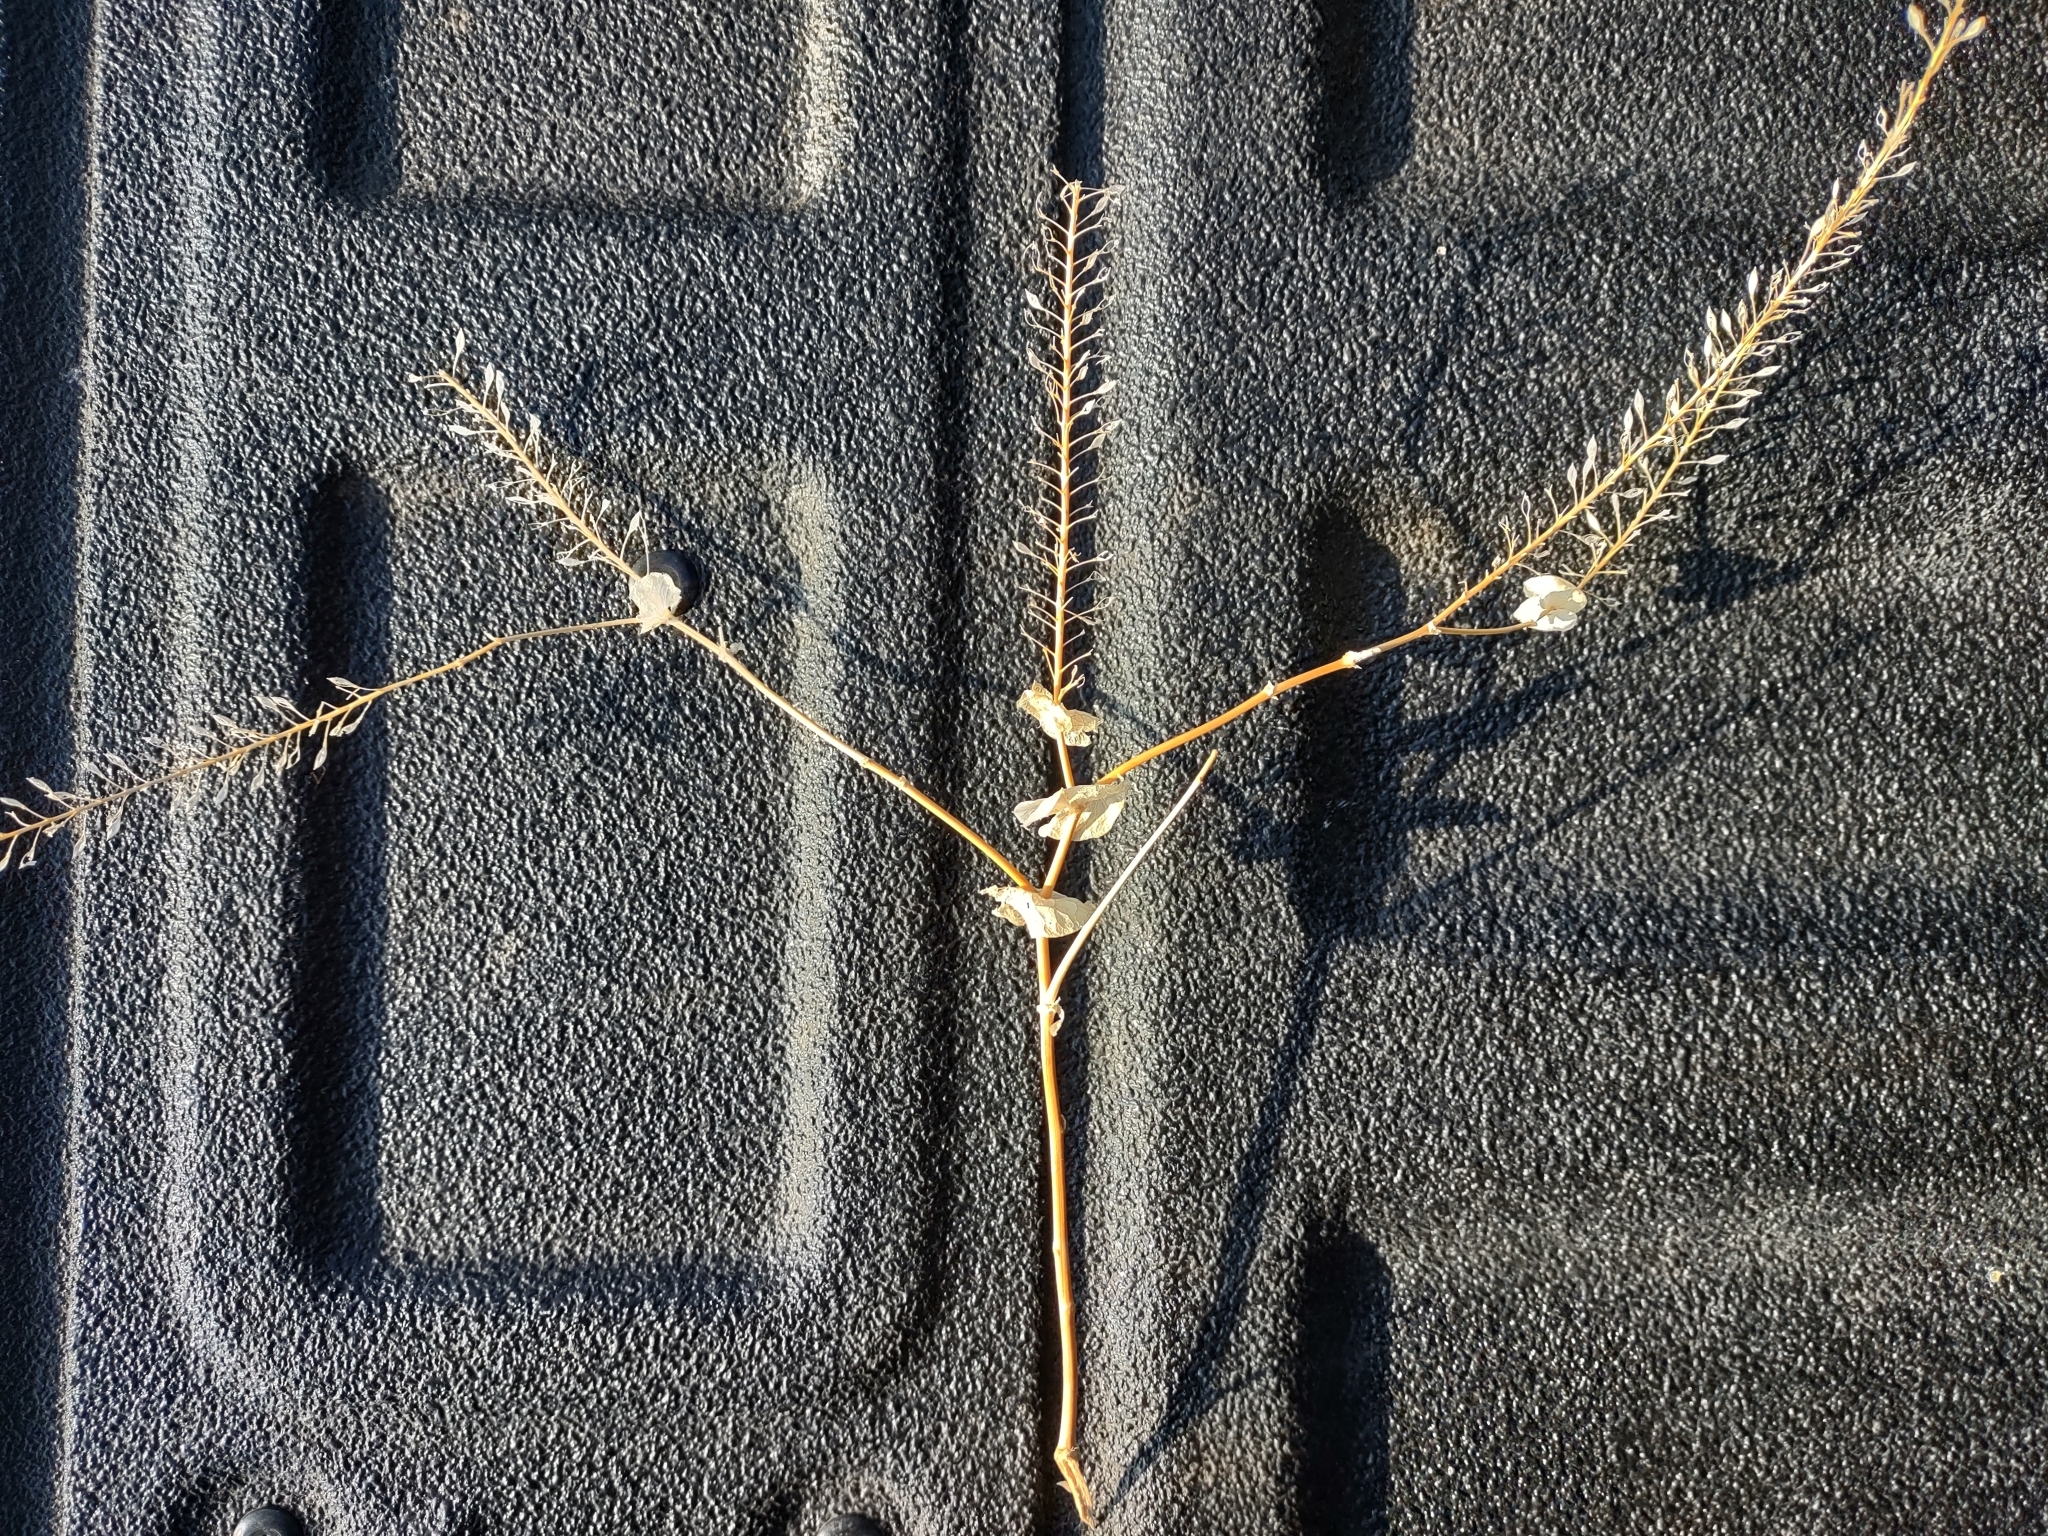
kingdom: Plantae
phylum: Tracheophyta
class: Magnoliopsida
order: Brassicales
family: Brassicaceae
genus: Lepidium
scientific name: Lepidium perfoliatum
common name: Perfoliate pepperwort
